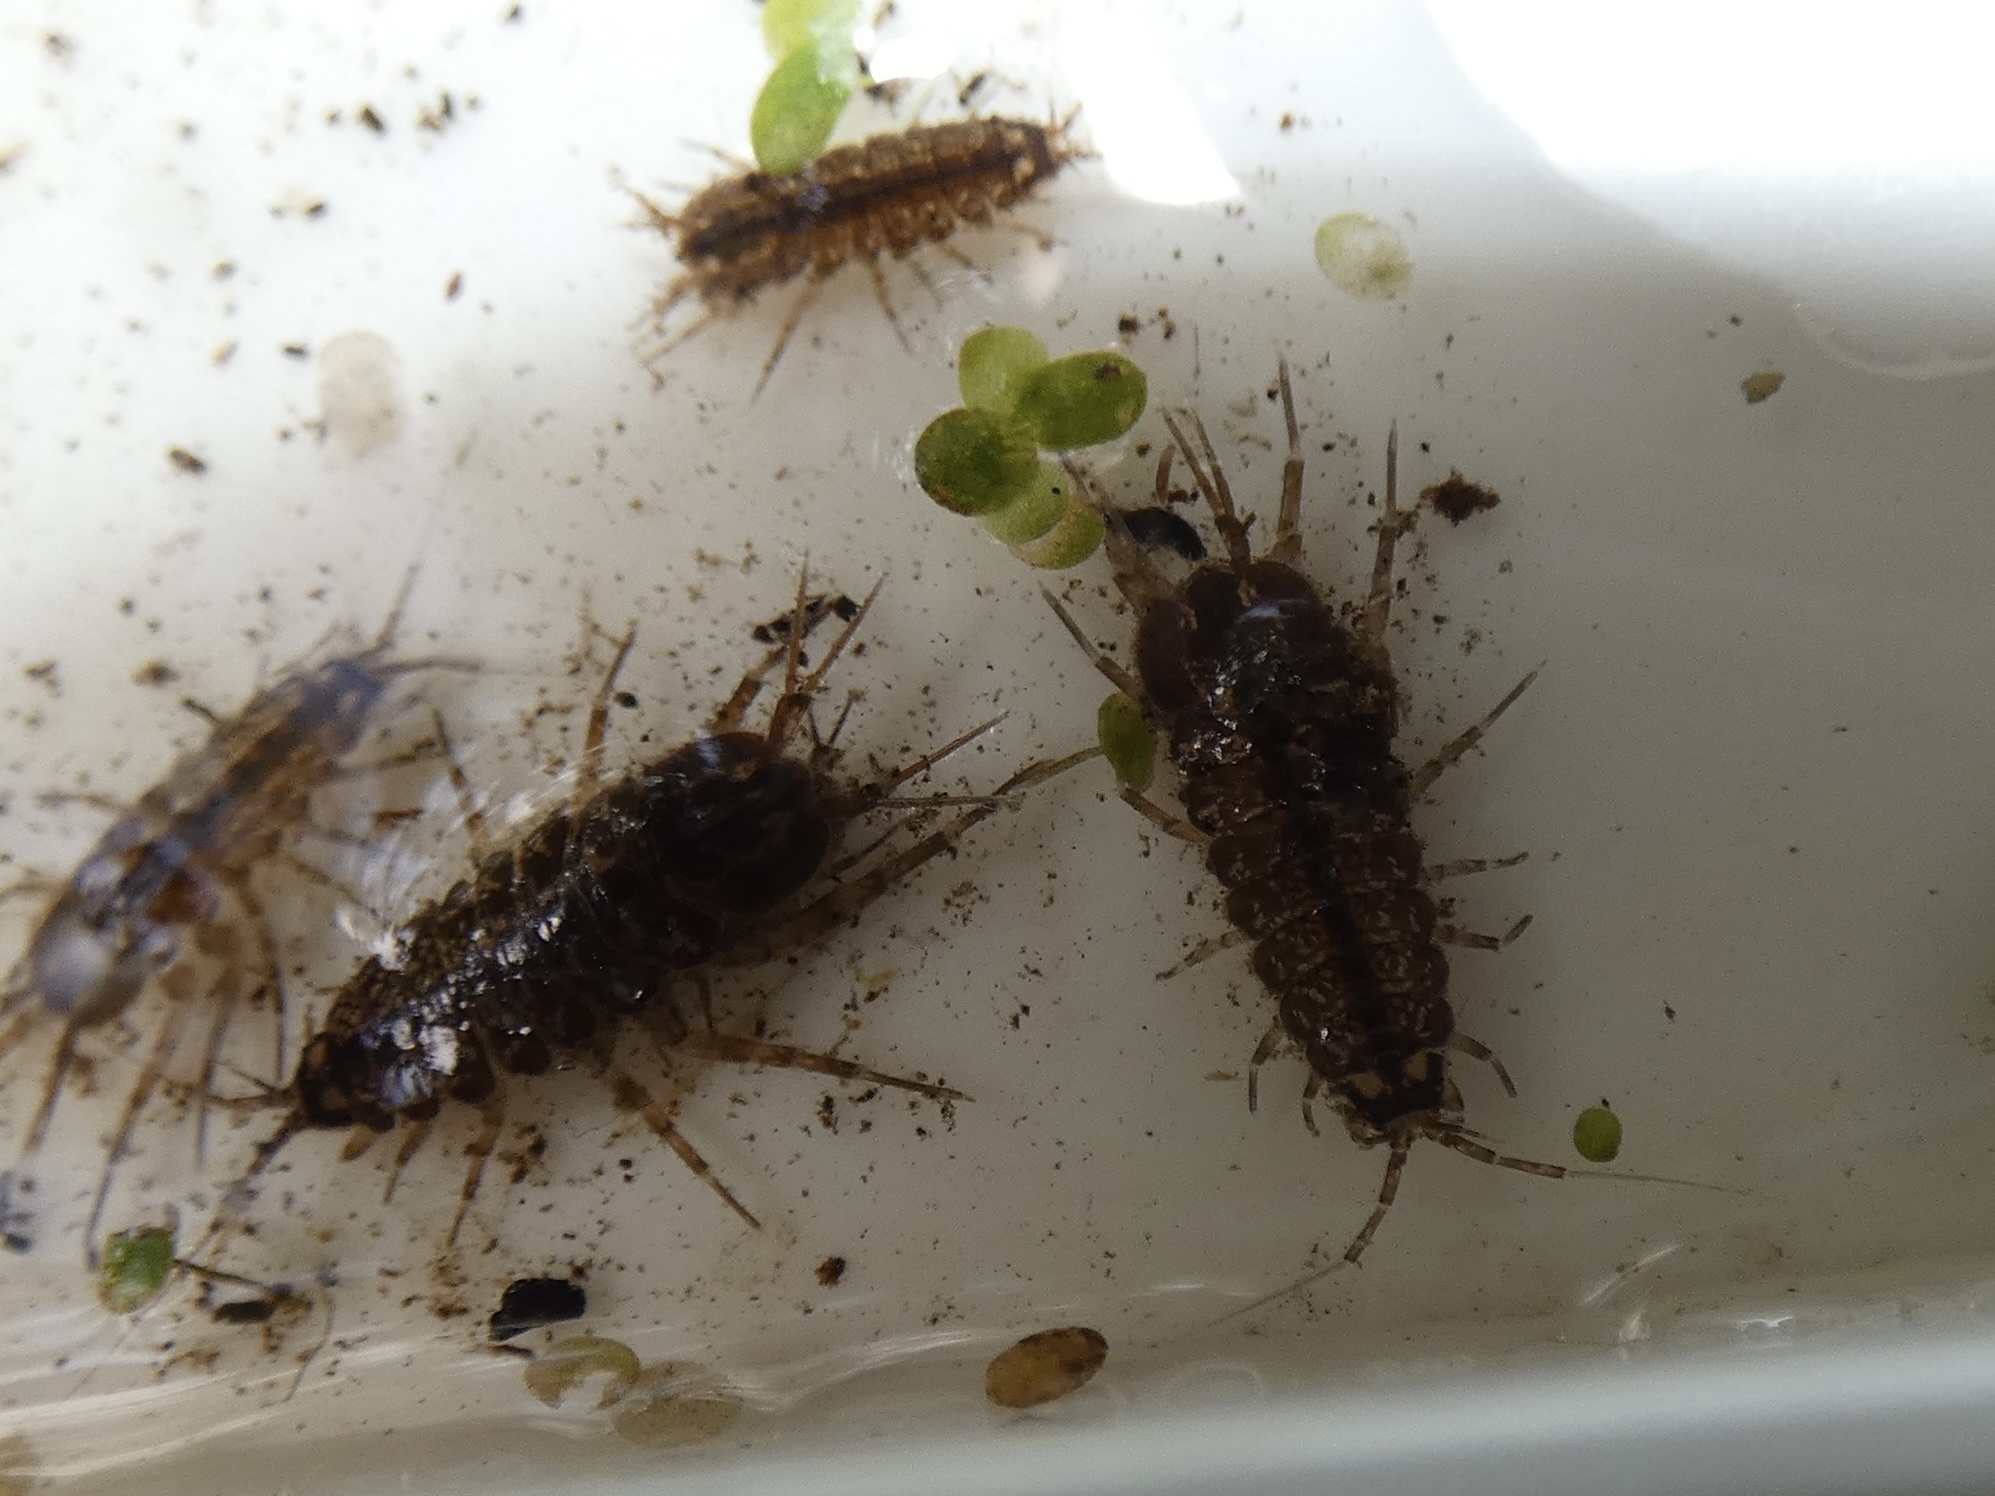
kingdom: Animalia
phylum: Arthropoda
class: Malacostraca
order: Isopoda
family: Asellidae
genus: Asellus
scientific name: Asellus aquaticus
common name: Water hog lice/slaters
